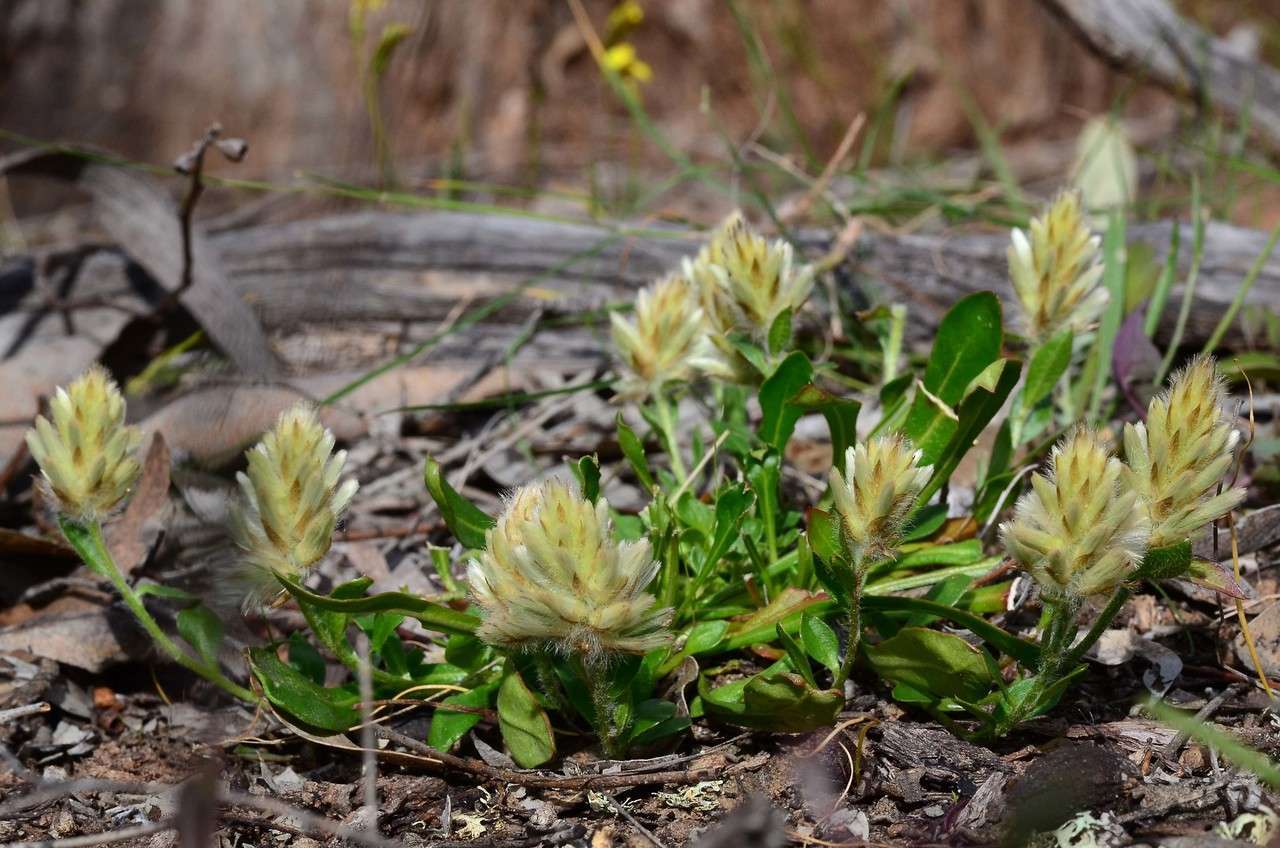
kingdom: Plantae
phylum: Tracheophyta
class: Magnoliopsida
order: Caryophyllales
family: Amaranthaceae
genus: Ptilotus
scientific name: Ptilotus spathulatus
